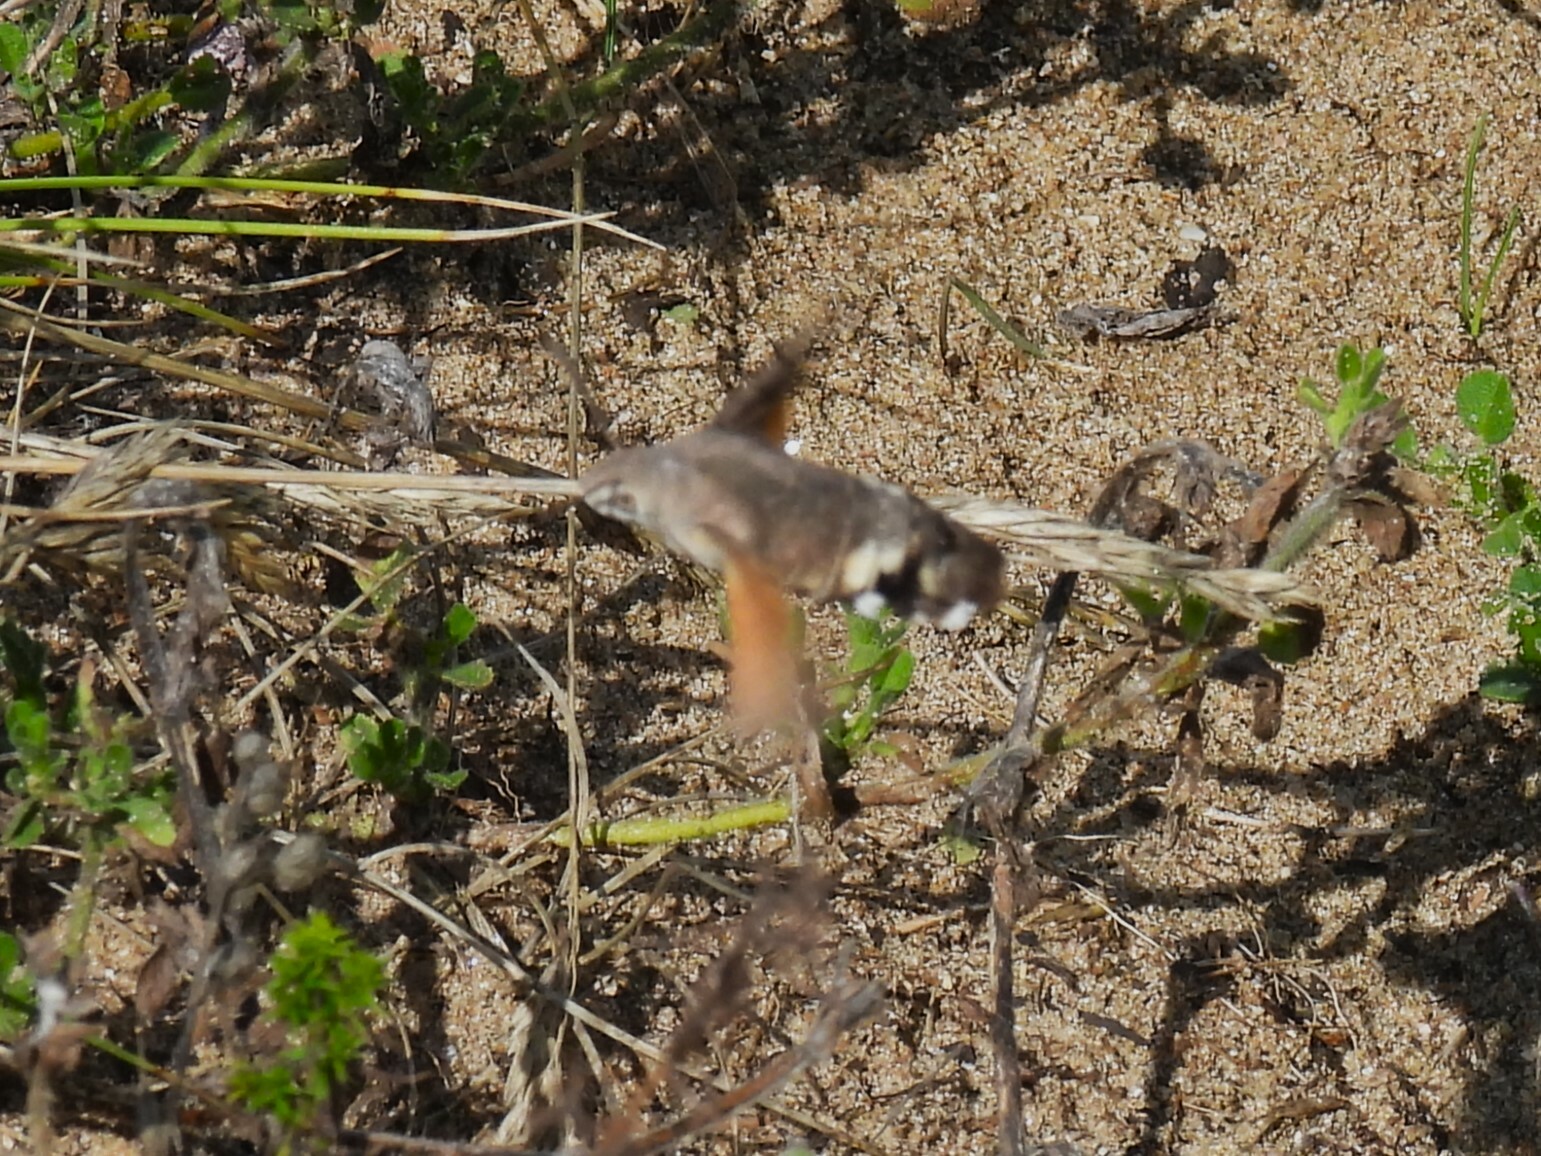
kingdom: Animalia
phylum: Arthropoda
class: Insecta
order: Lepidoptera
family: Sphingidae
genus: Macroglossum
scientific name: Macroglossum stellatarum
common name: Humming-bird hawk-moth
